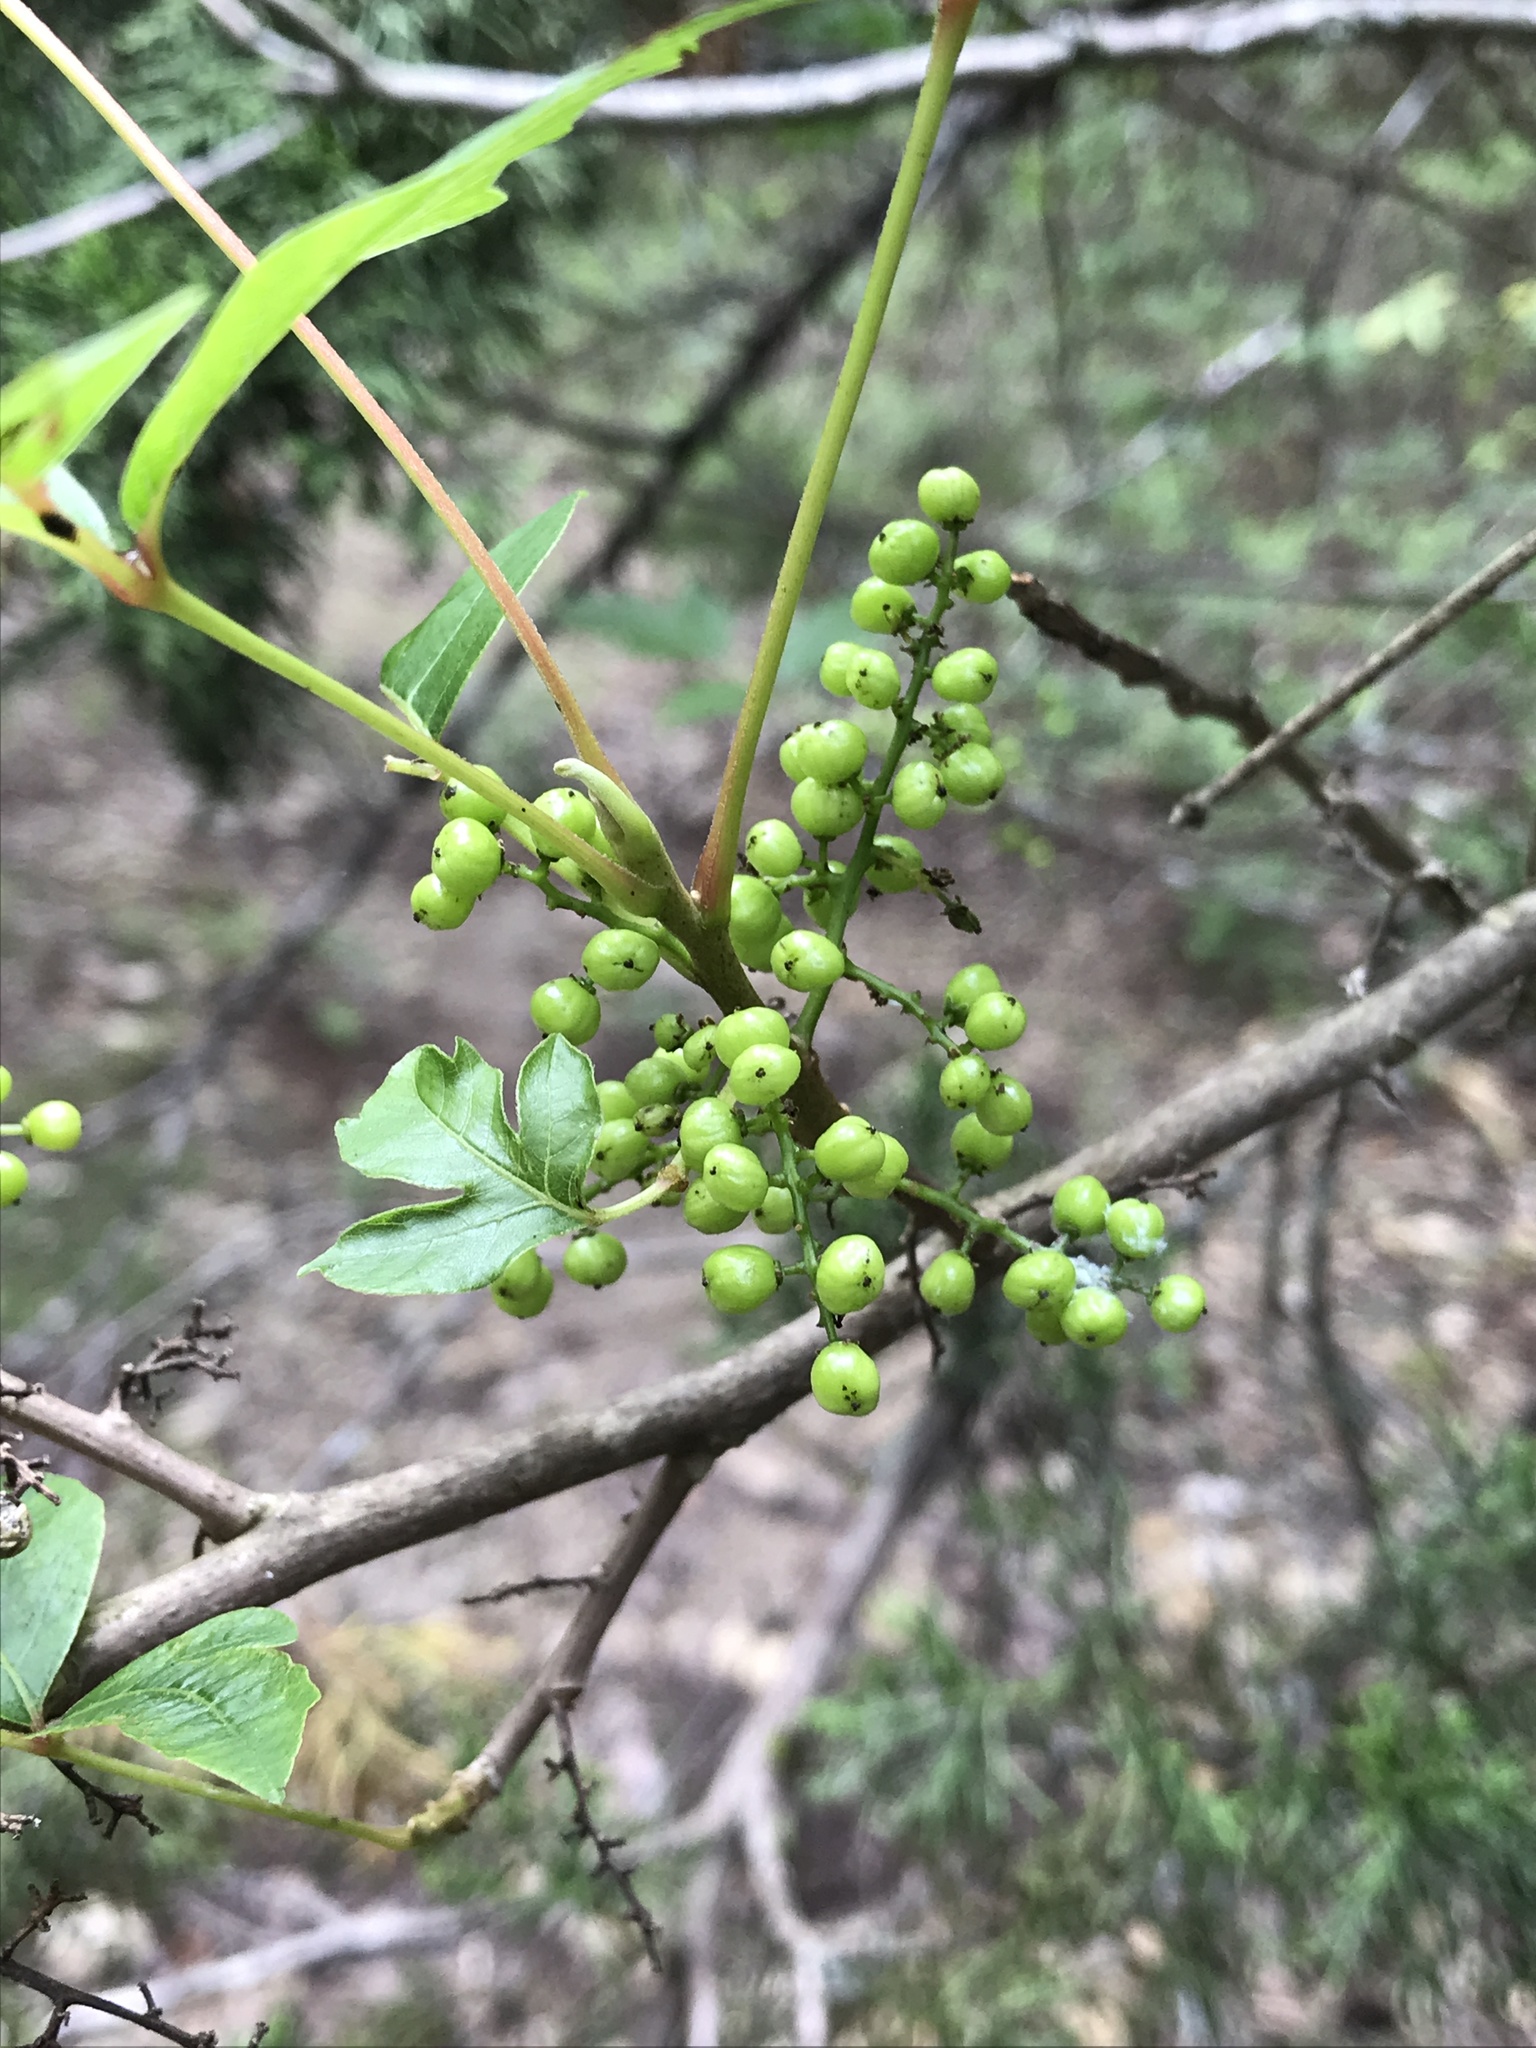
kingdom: Plantae
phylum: Tracheophyta
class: Magnoliopsida
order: Sapindales
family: Anacardiaceae
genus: Toxicodendron
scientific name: Toxicodendron radicans
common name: Poison ivy
